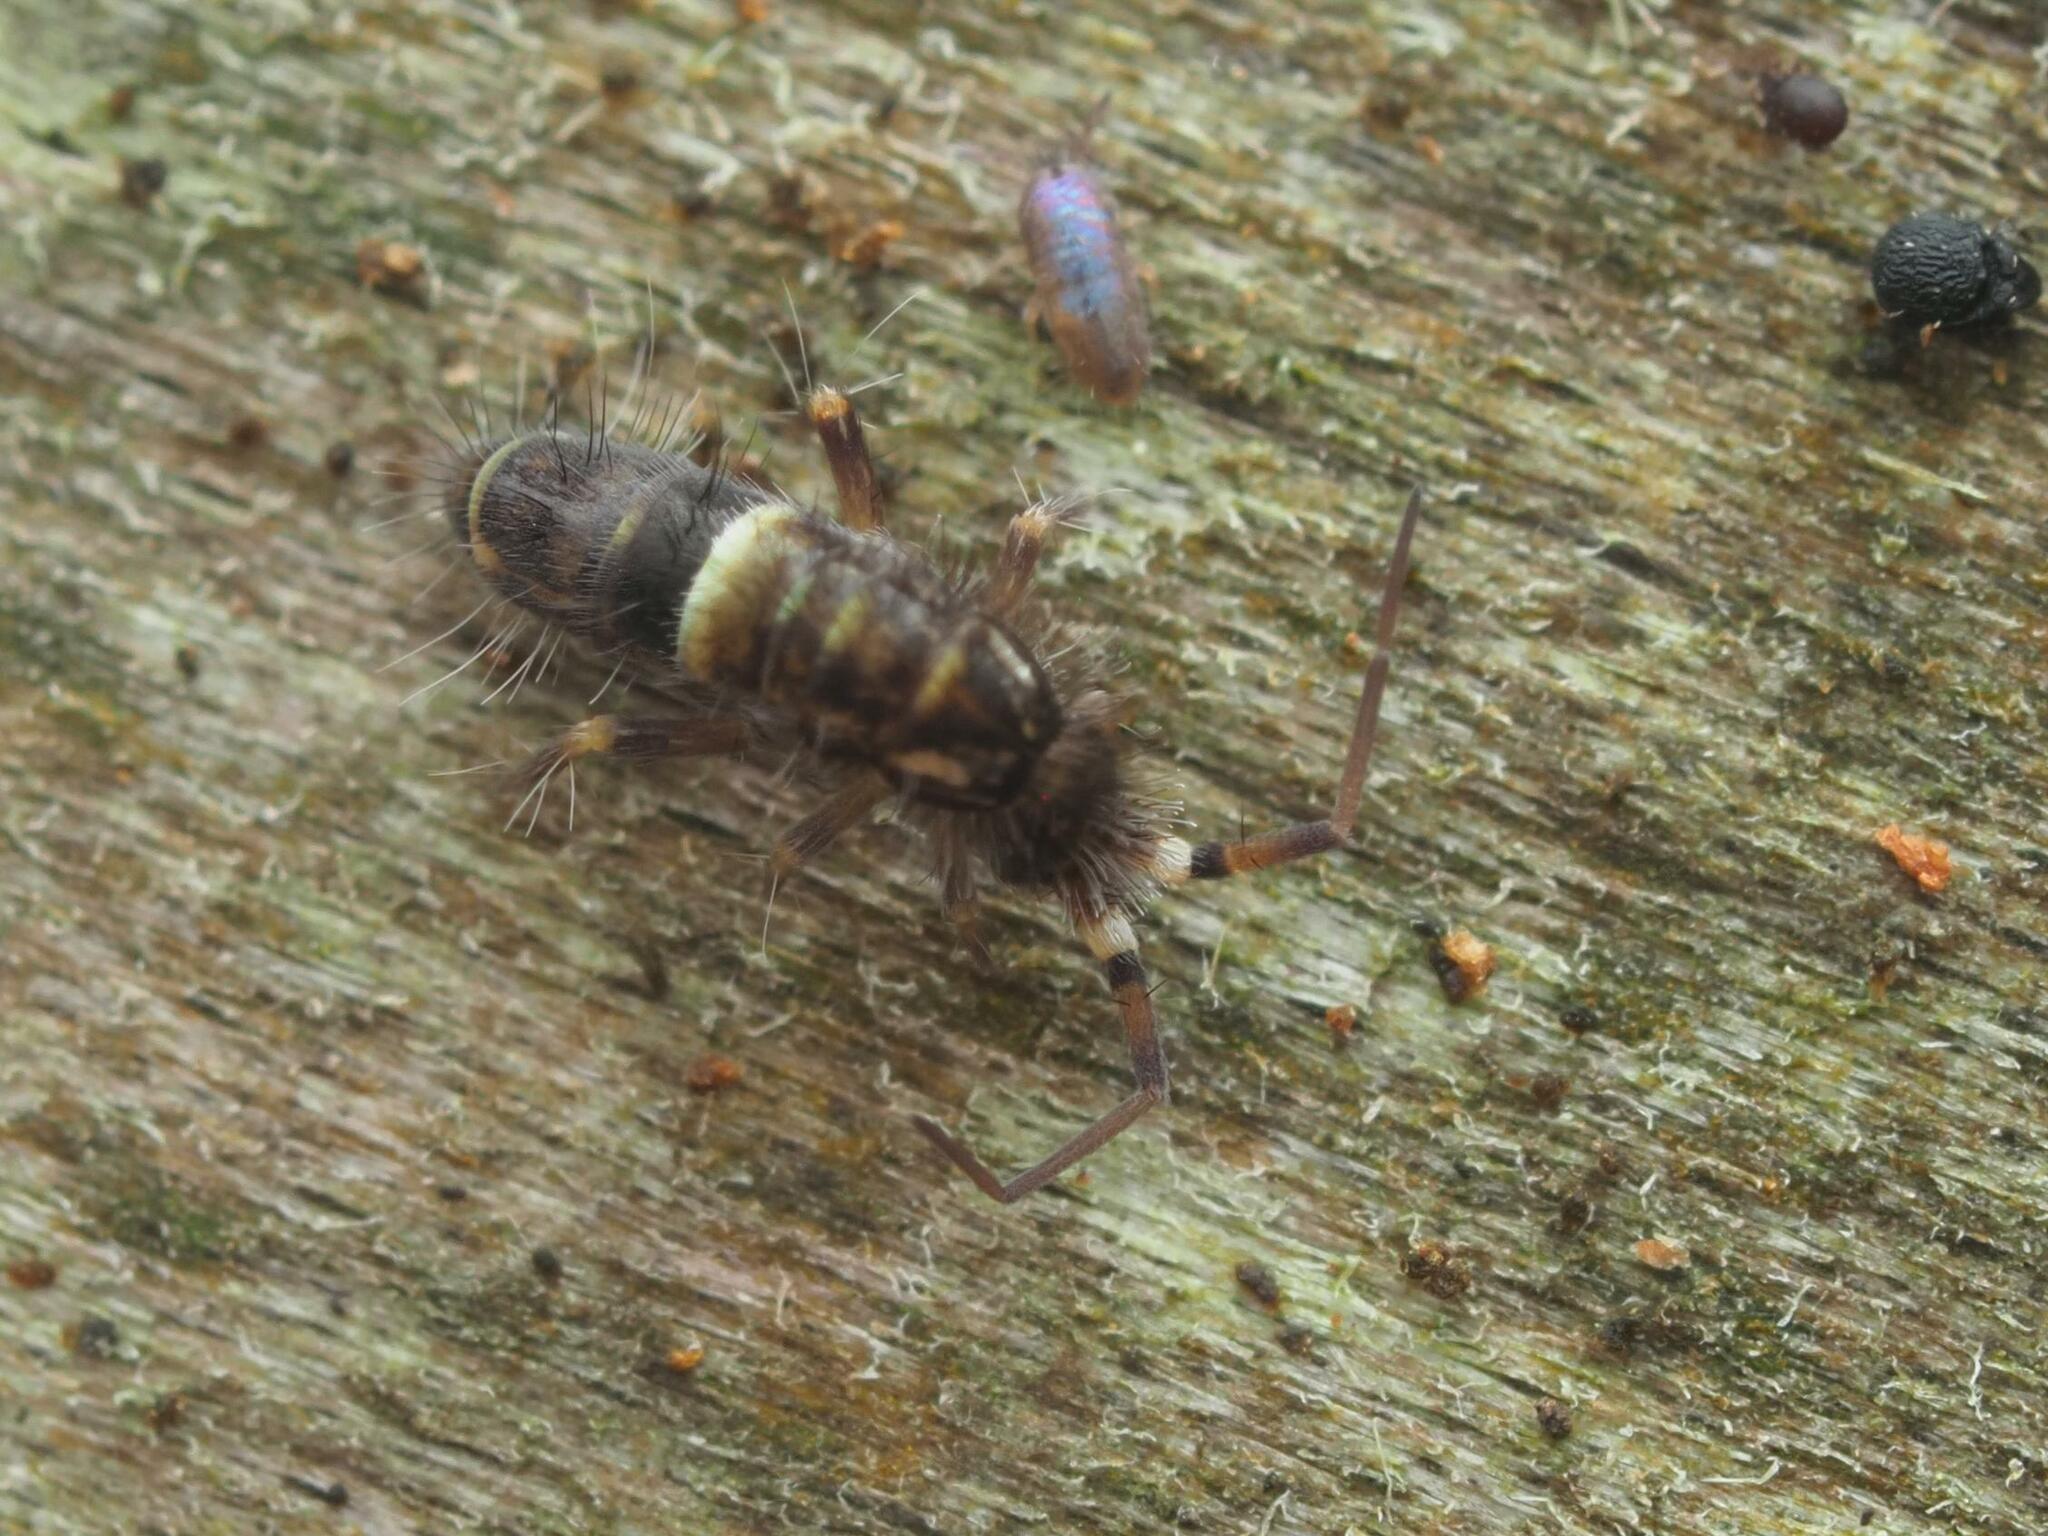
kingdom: Animalia
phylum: Arthropoda
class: Collembola
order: Entomobryomorpha
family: Orchesellidae
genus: Orchesella
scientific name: Orchesella cincta
